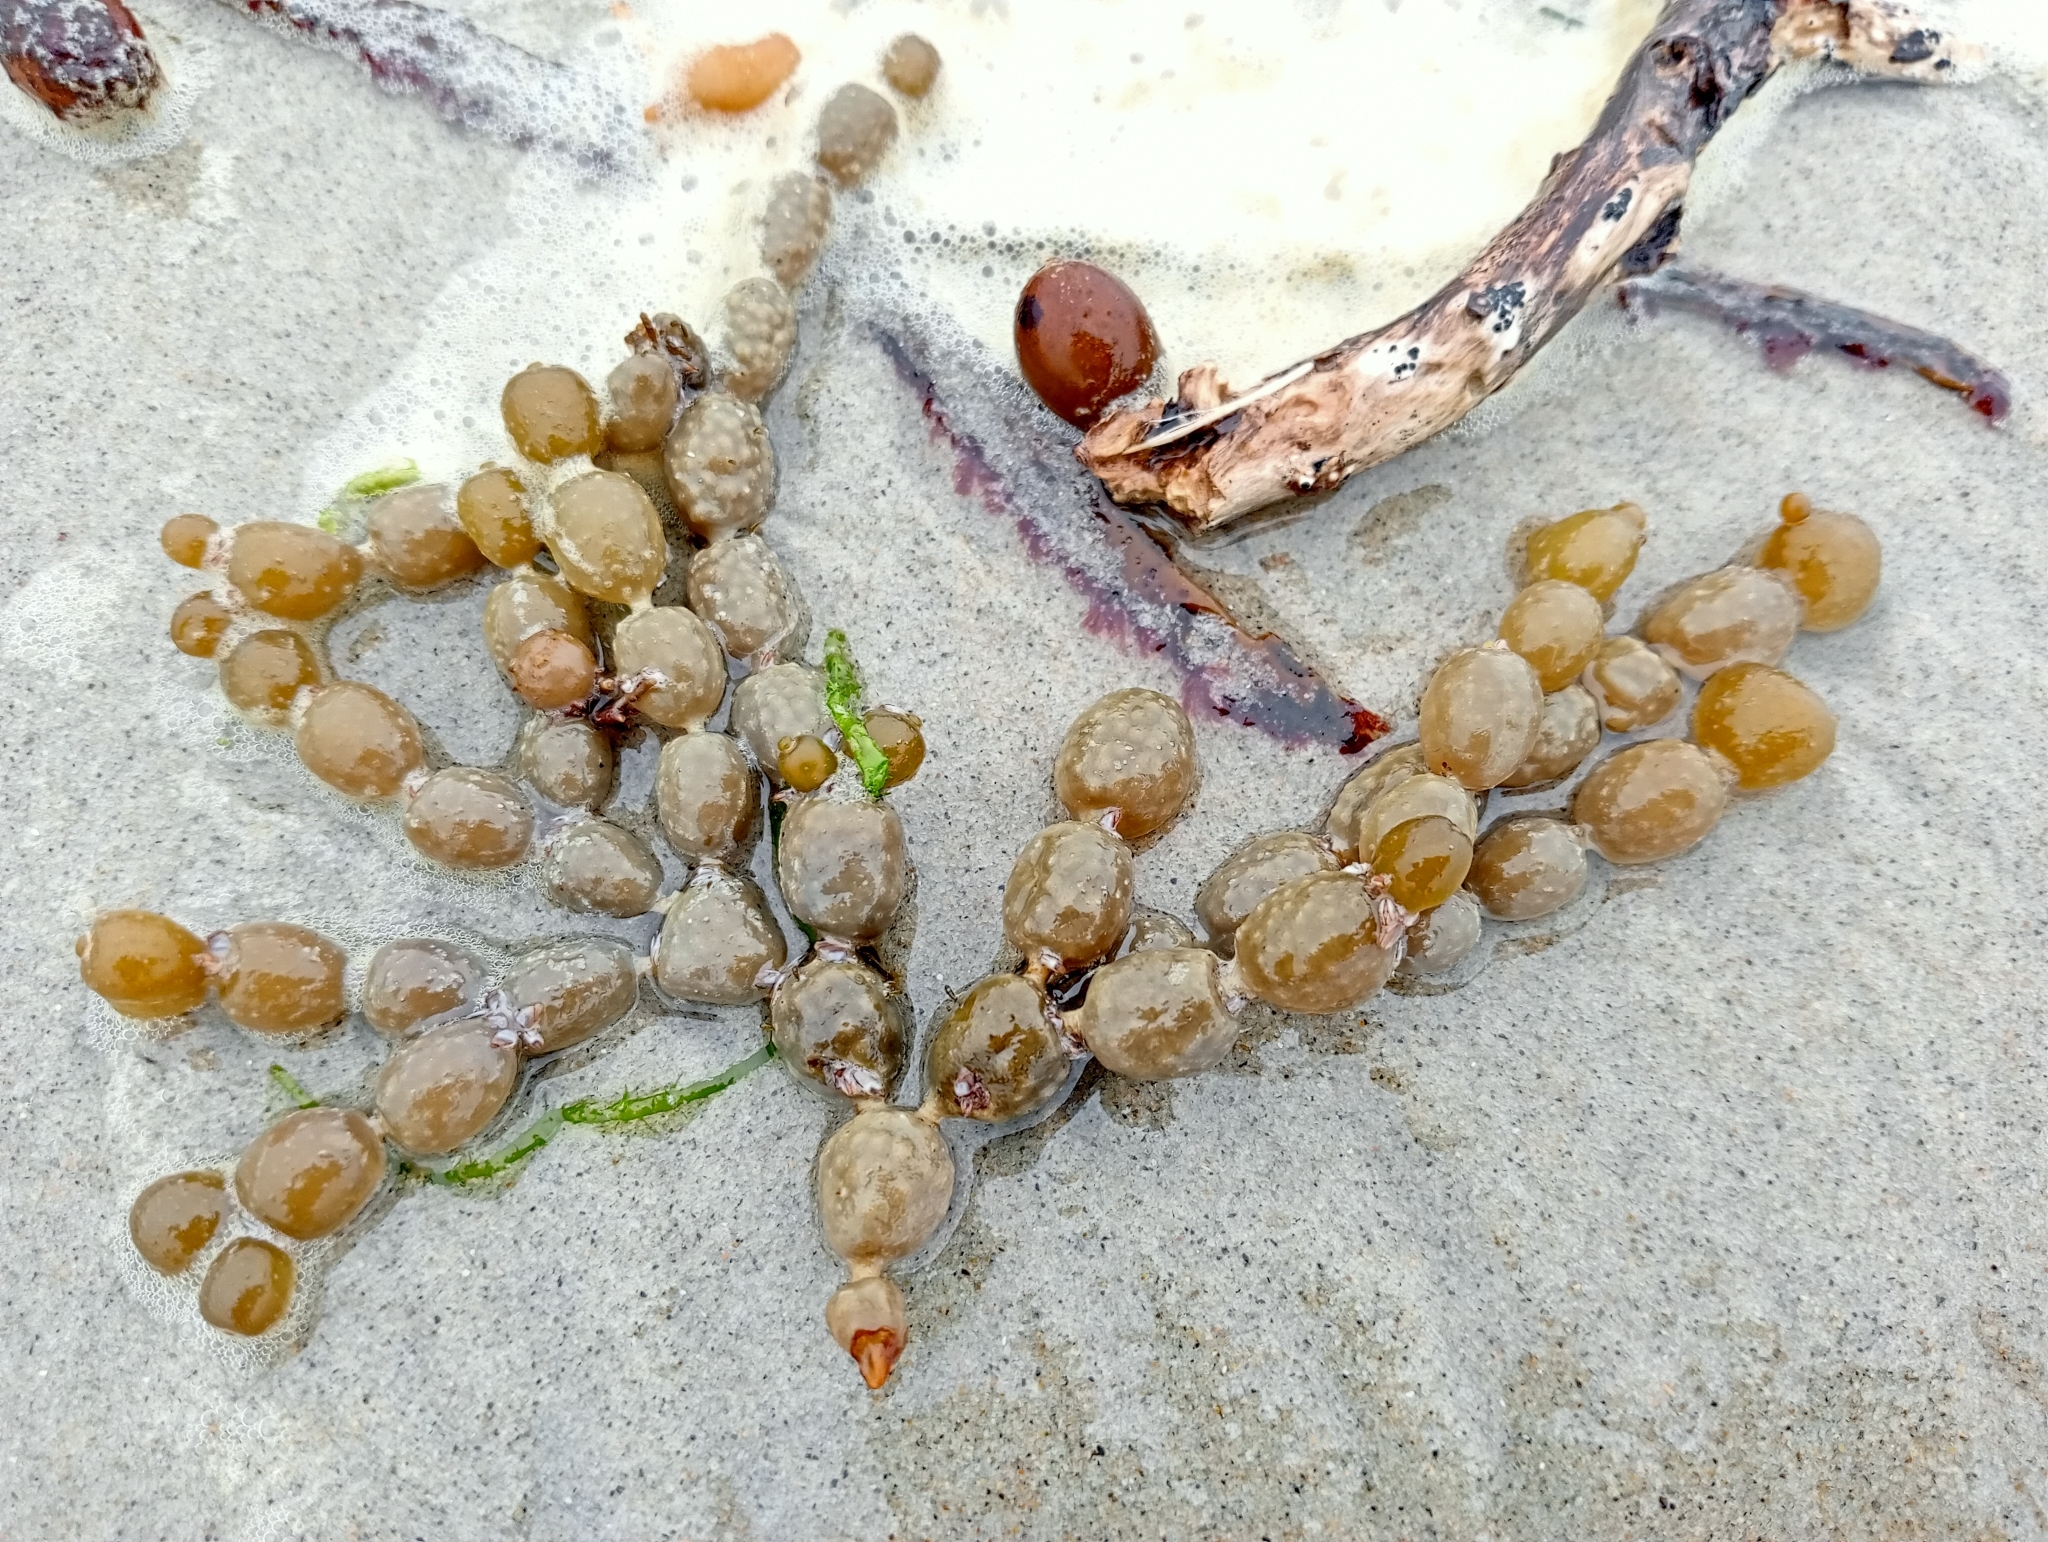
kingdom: Chromista
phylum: Ochrophyta
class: Phaeophyceae
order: Fucales
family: Hormosiraceae
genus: Hormosira
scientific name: Hormosira banksii
